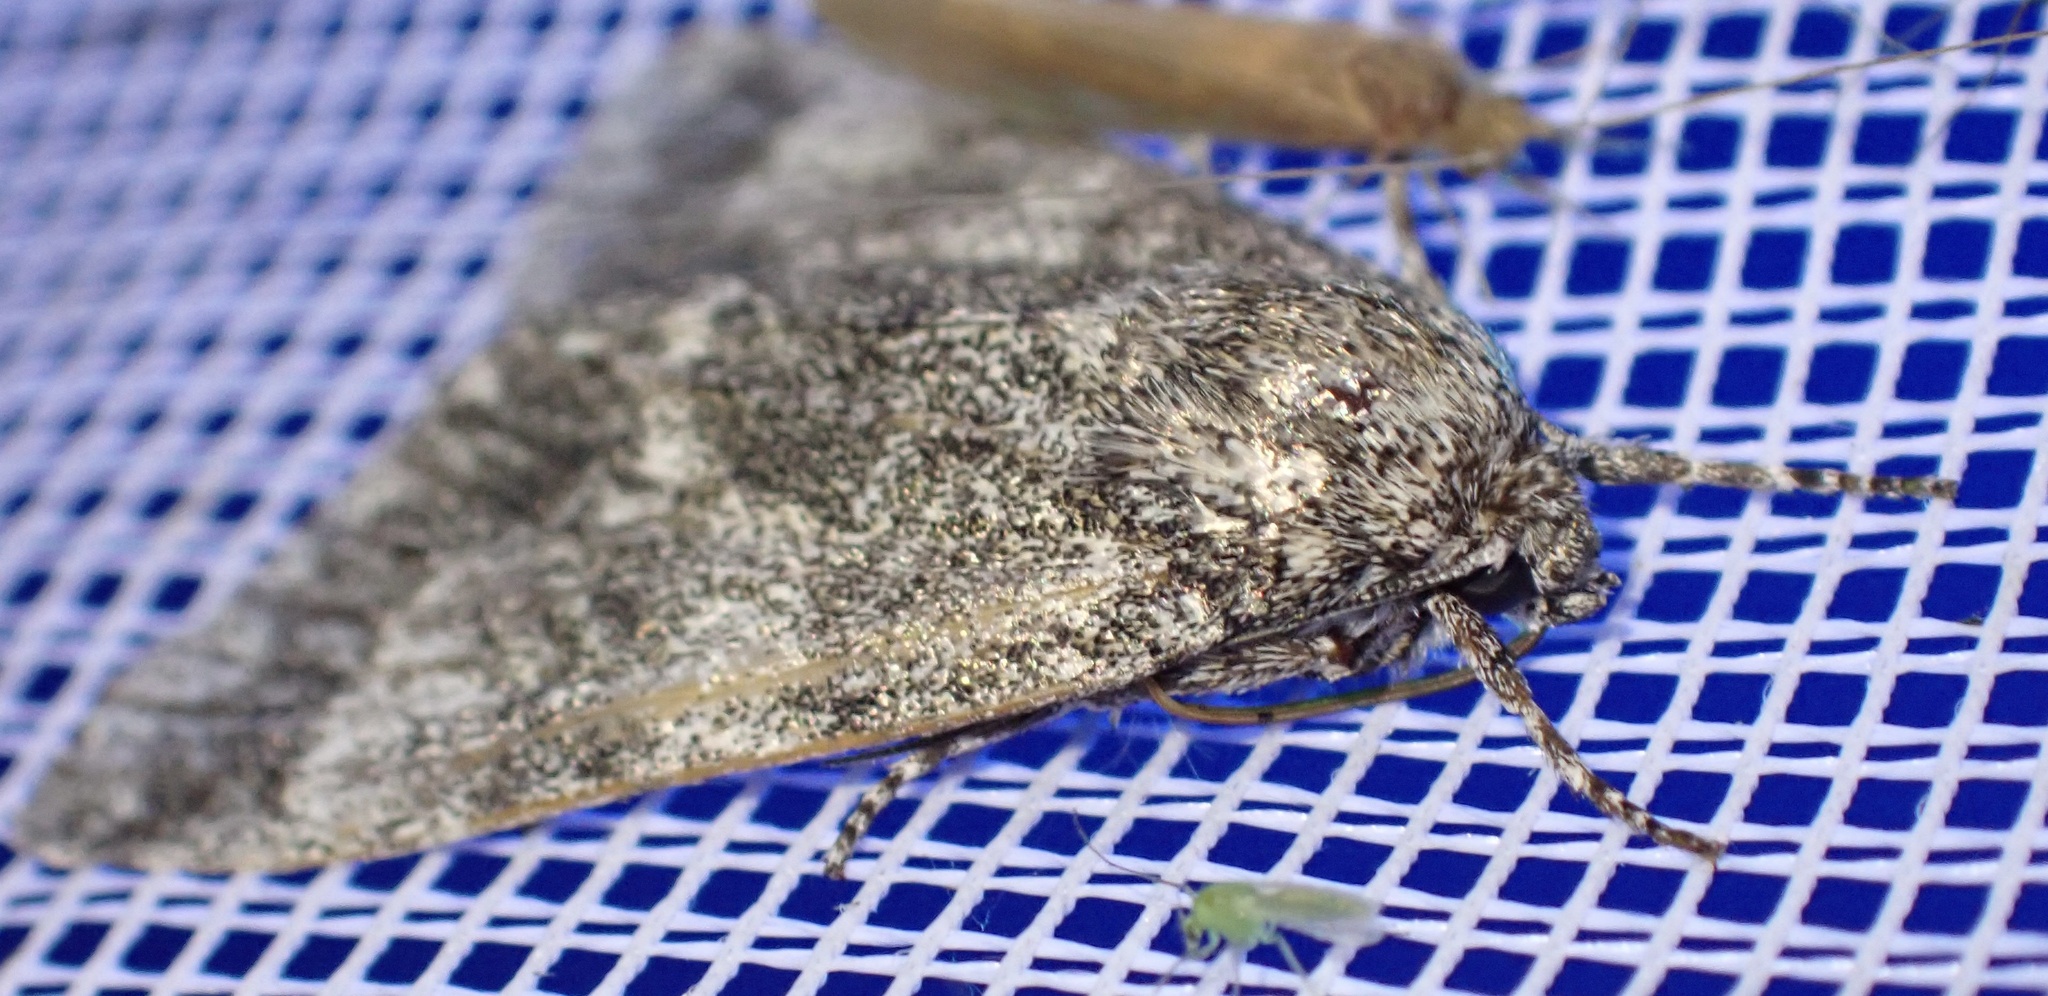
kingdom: Animalia
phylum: Arthropoda
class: Insecta
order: Lepidoptera
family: Noctuidae
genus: Acronicta
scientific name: Acronicta megacephala
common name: Poplar grey
